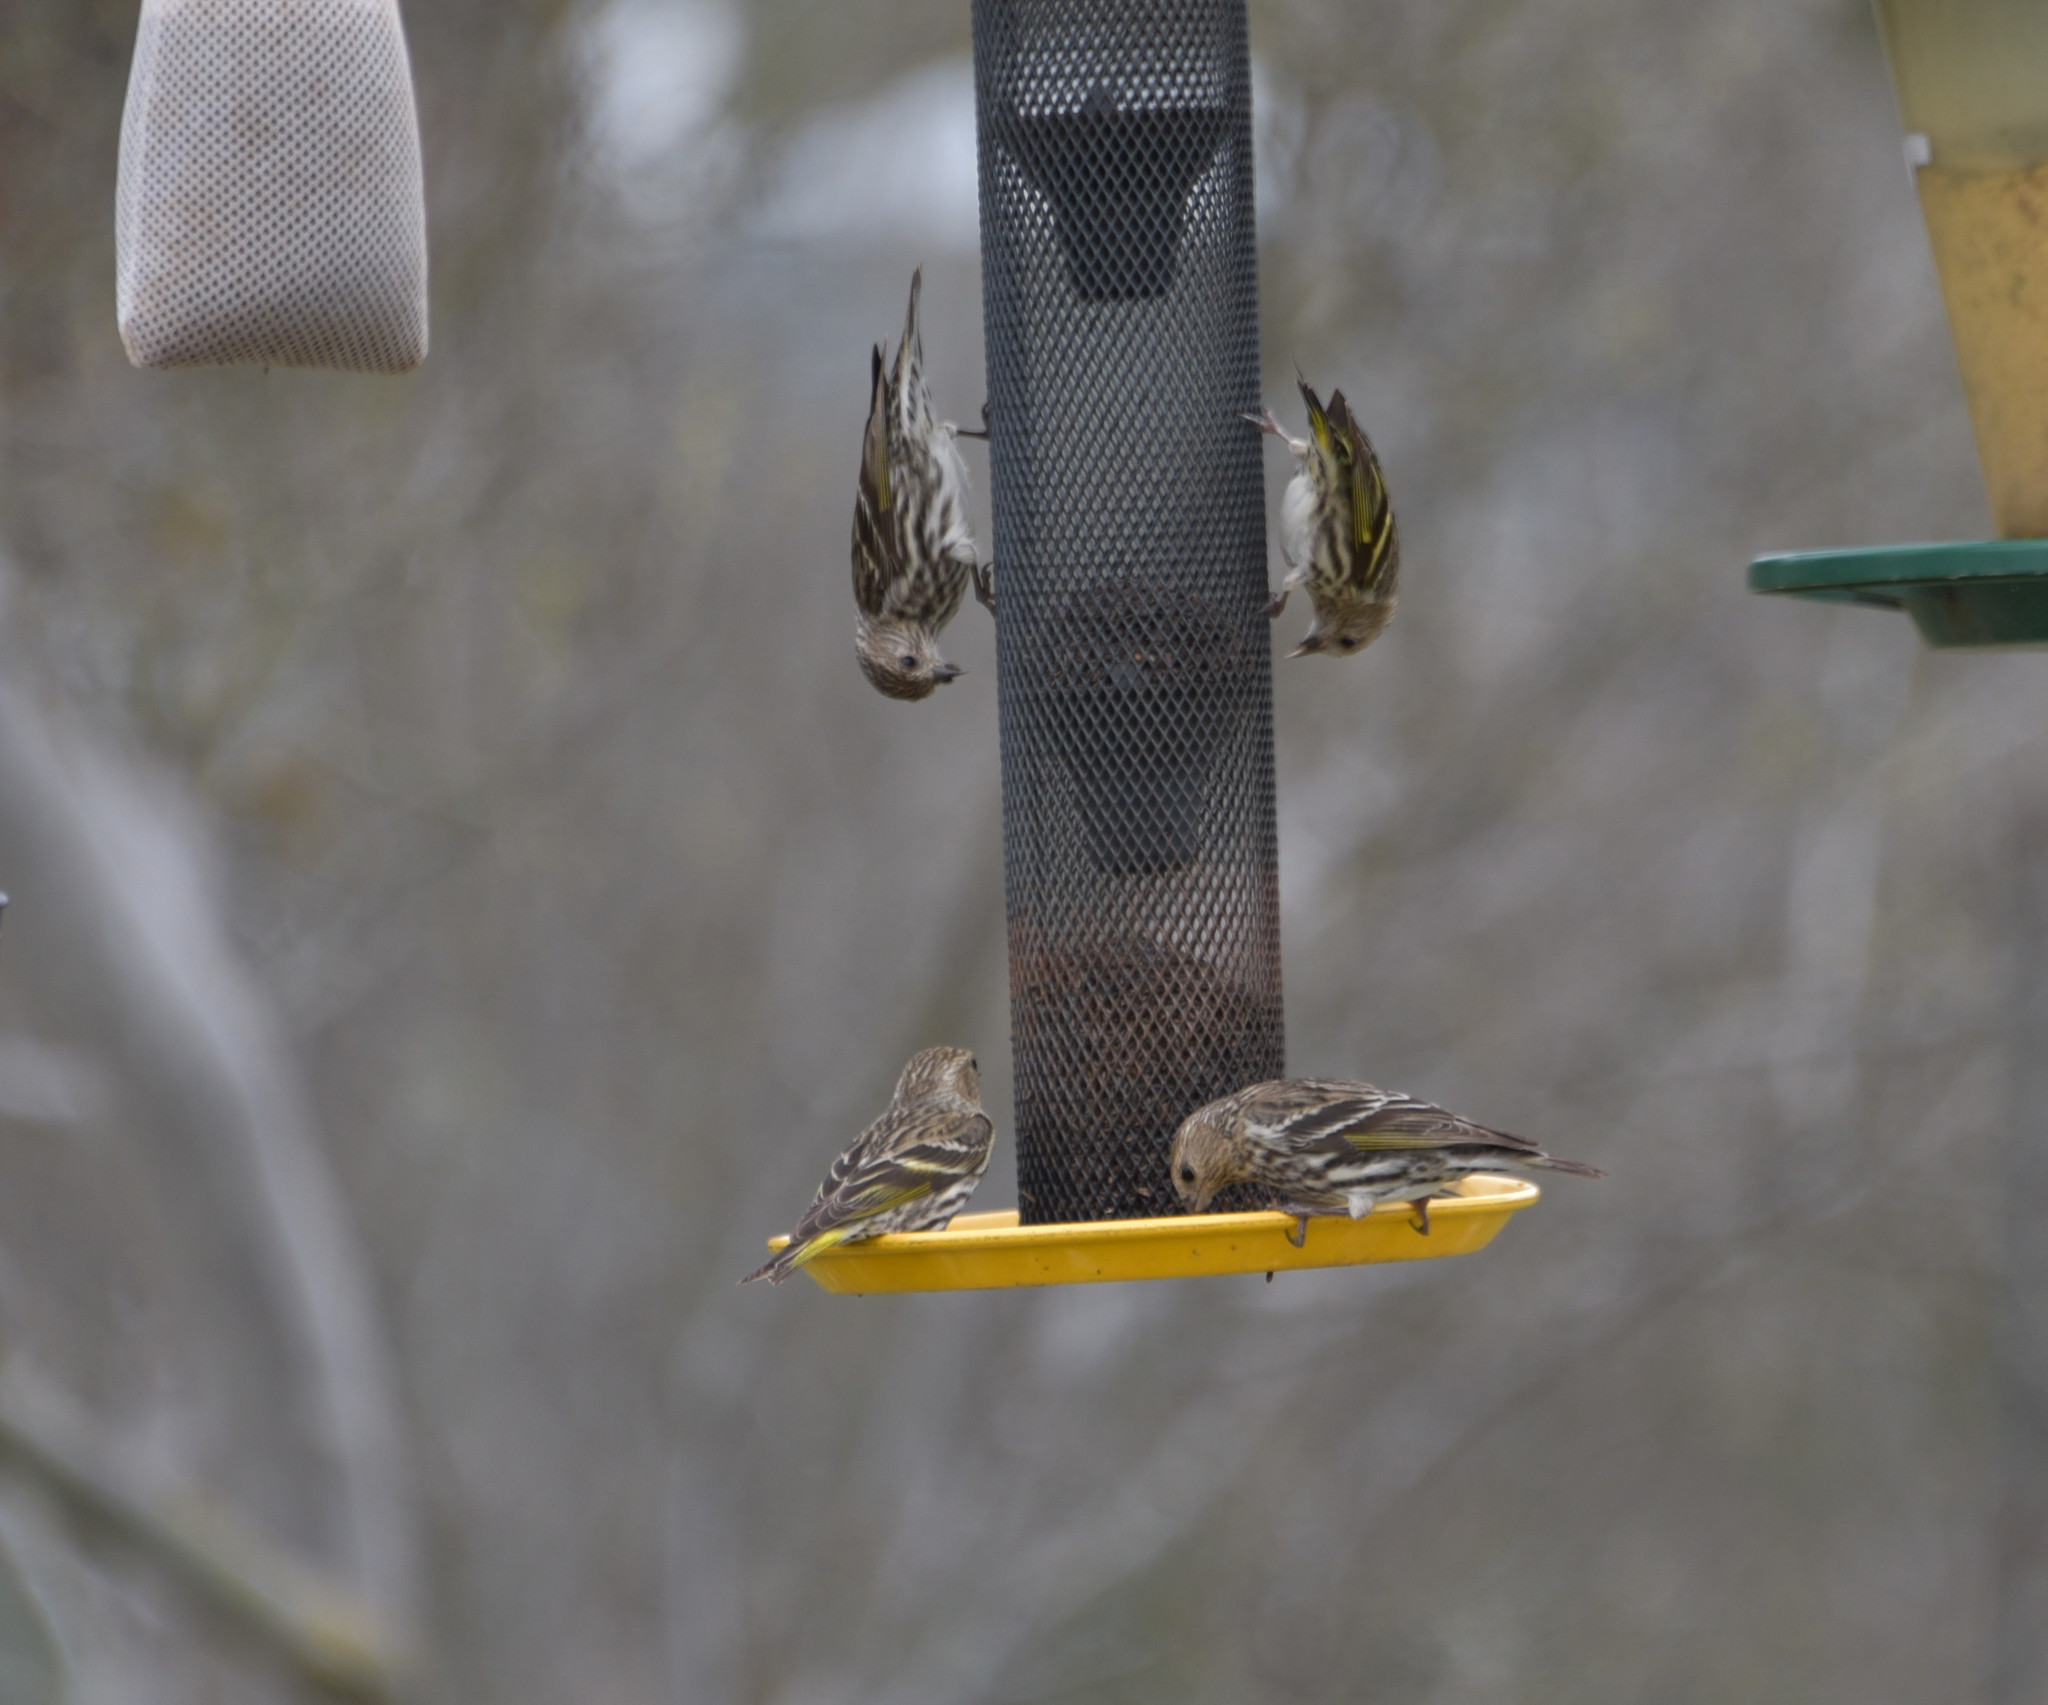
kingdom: Animalia
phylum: Chordata
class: Aves
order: Passeriformes
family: Fringillidae
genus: Spinus
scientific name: Spinus pinus
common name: Pine siskin
